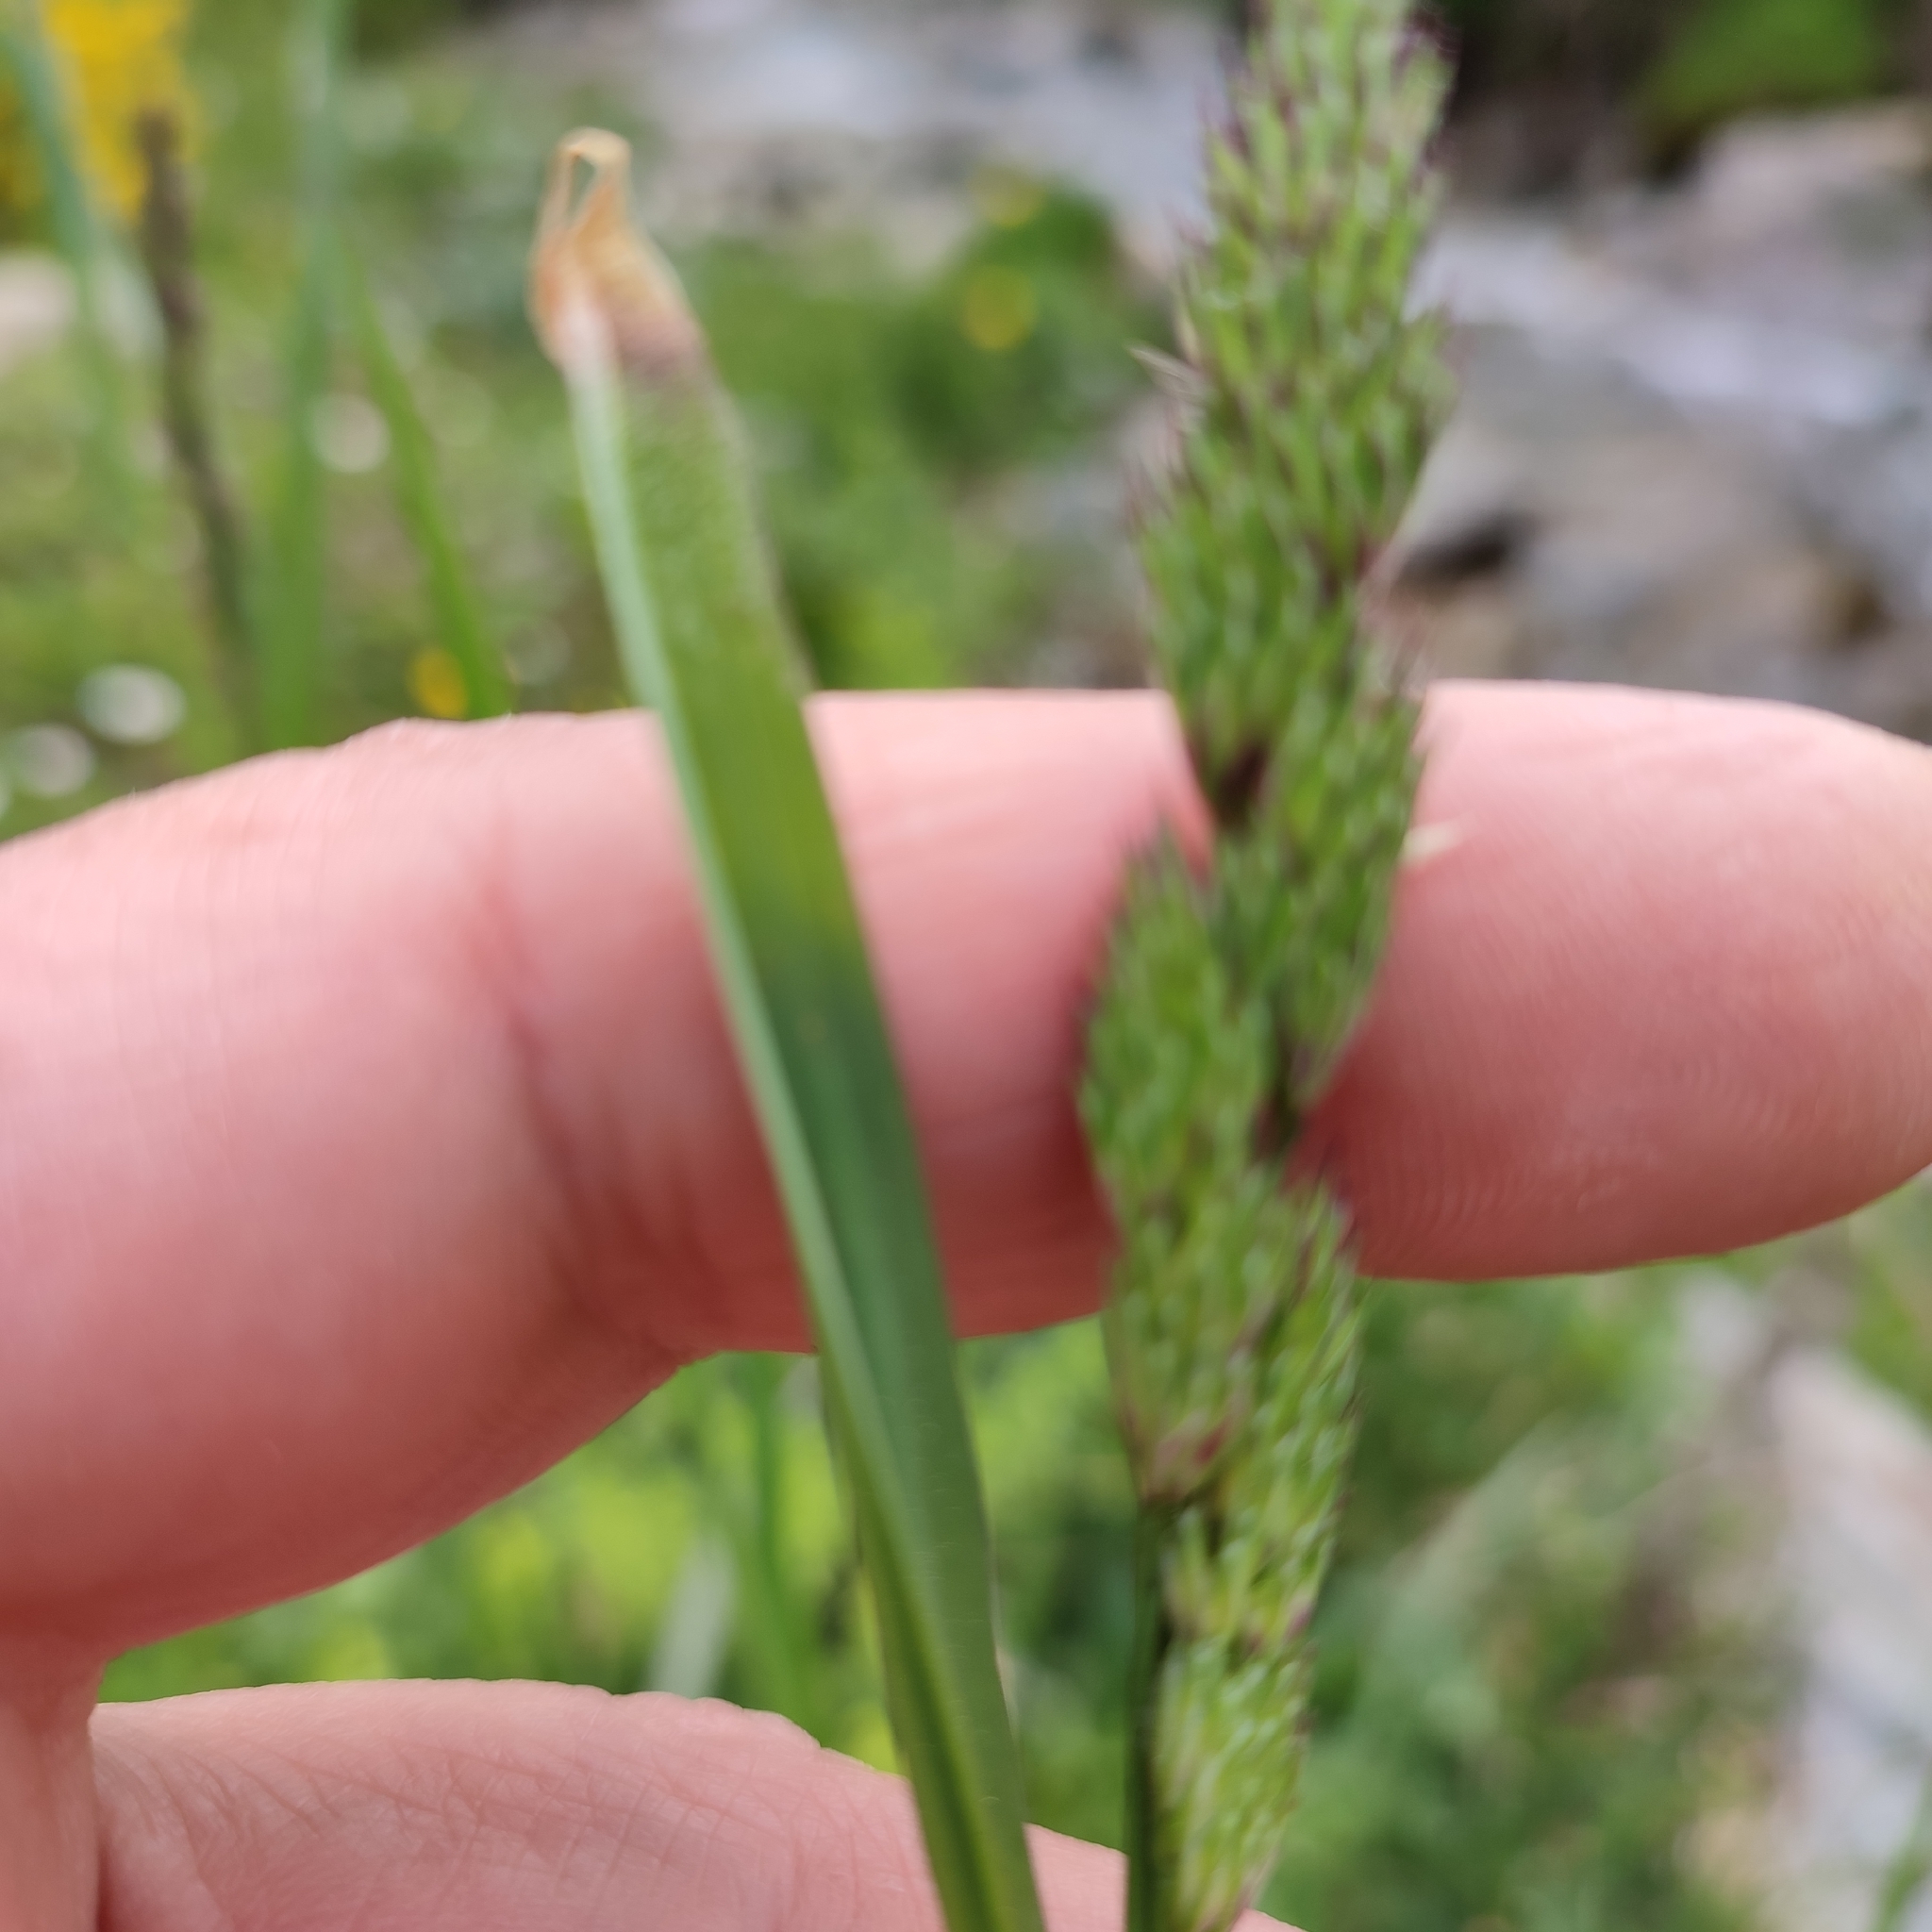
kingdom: Plantae
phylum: Tracheophyta
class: Liliopsida
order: Poales
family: Poaceae
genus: Dactylis
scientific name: Dactylis glomerata
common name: Orchardgrass
